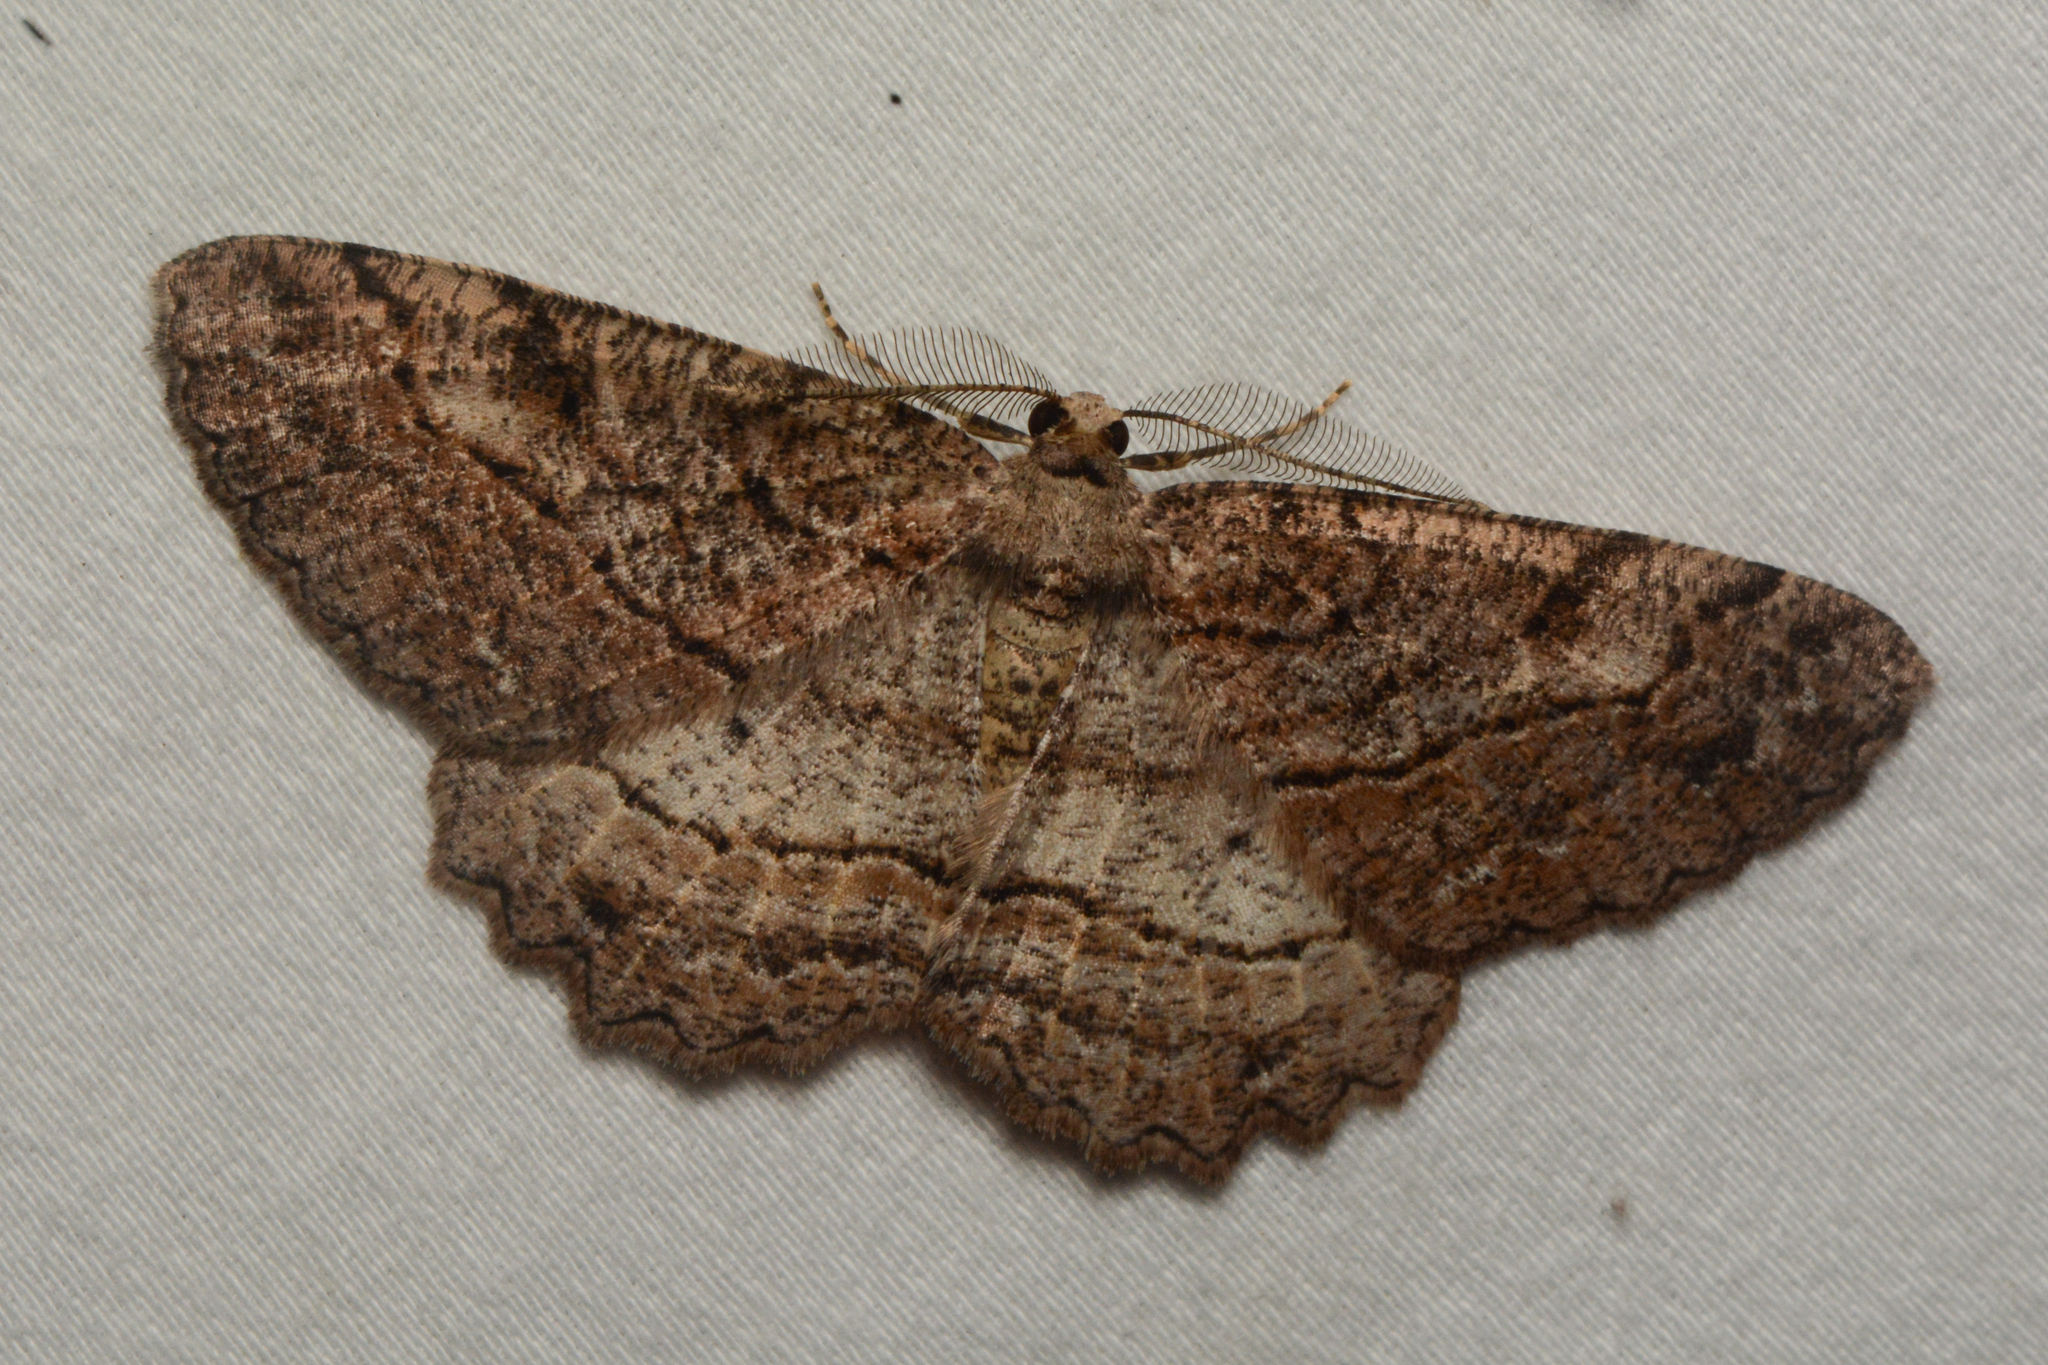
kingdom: Animalia
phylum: Arthropoda
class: Insecta
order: Lepidoptera
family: Geometridae
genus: Neoalcis
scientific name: Neoalcis californiaria
